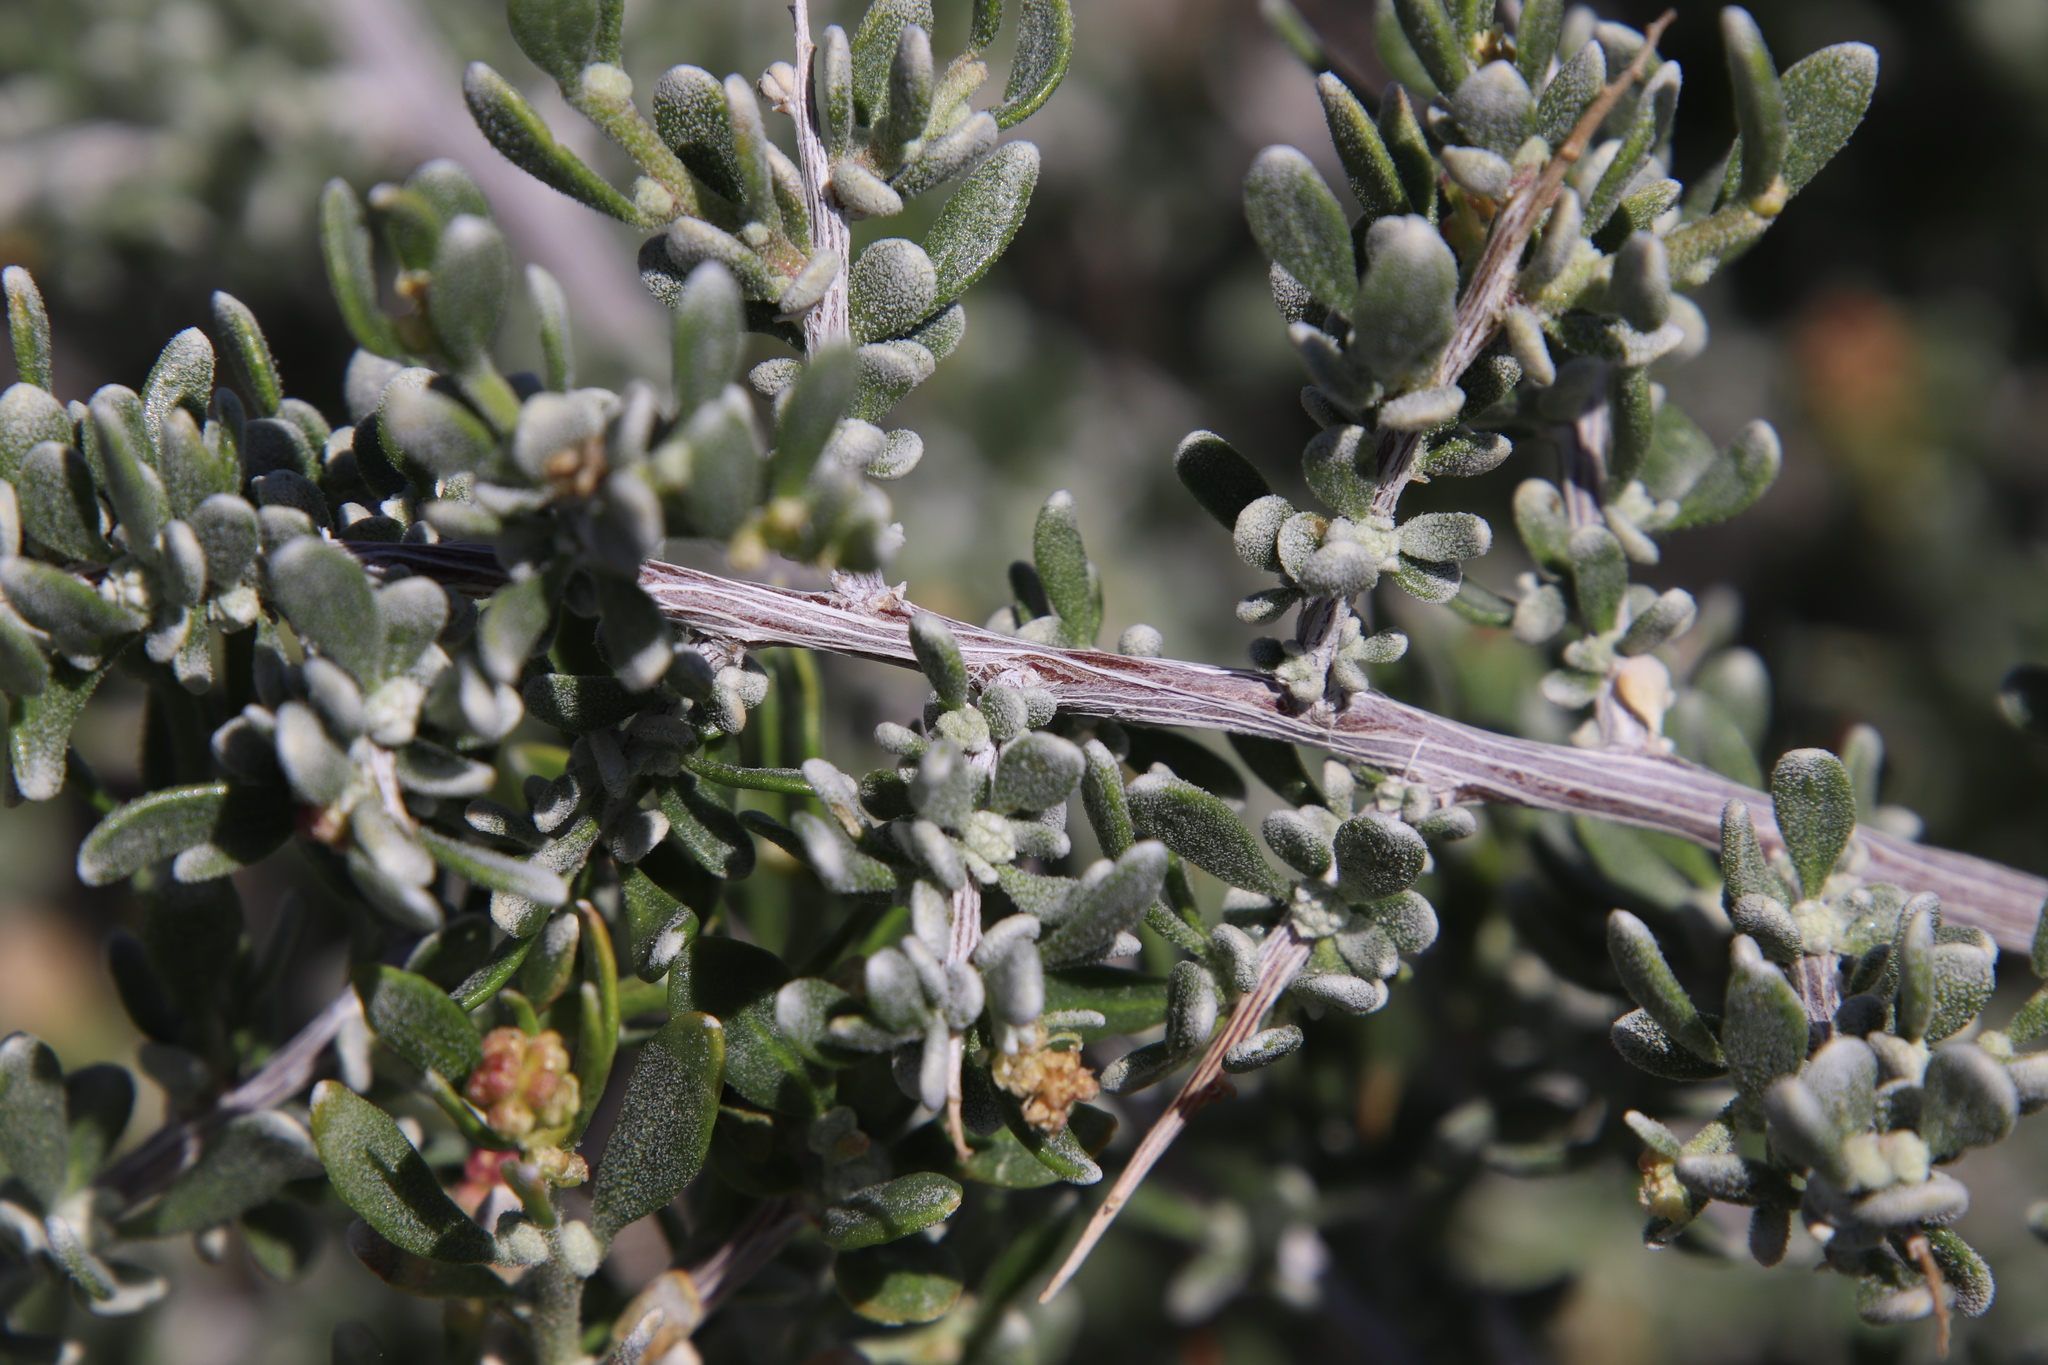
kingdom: Plantae
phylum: Tracheophyta
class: Magnoliopsida
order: Caryophyllales
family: Amaranthaceae
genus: Grayia
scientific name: Grayia spinosa
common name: Spiny hopsage
